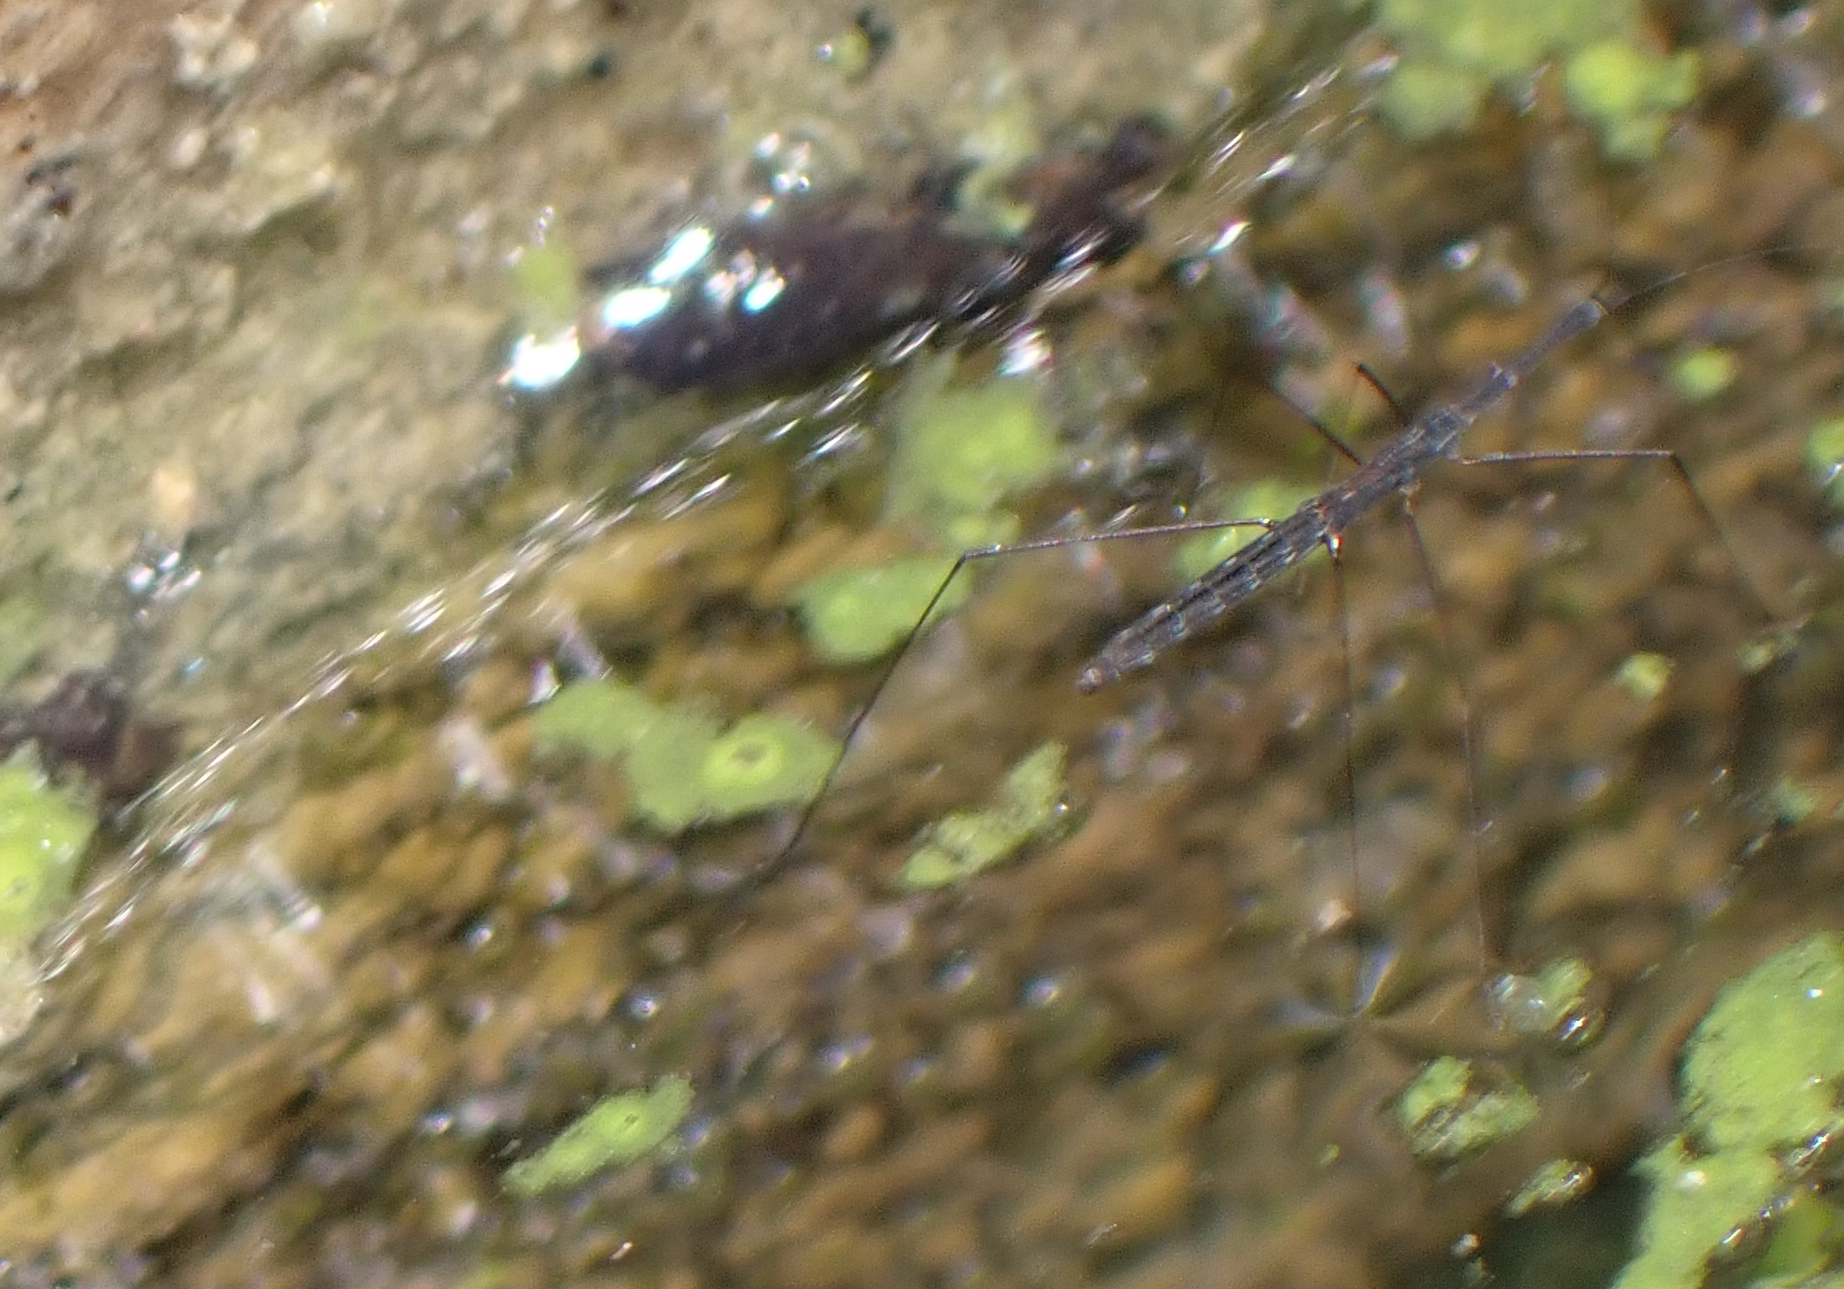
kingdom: Animalia
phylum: Arthropoda
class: Insecta
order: Hemiptera
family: Hydrometridae
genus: Hydrometra
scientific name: Hydrometra stagnorum
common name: Water measurer
